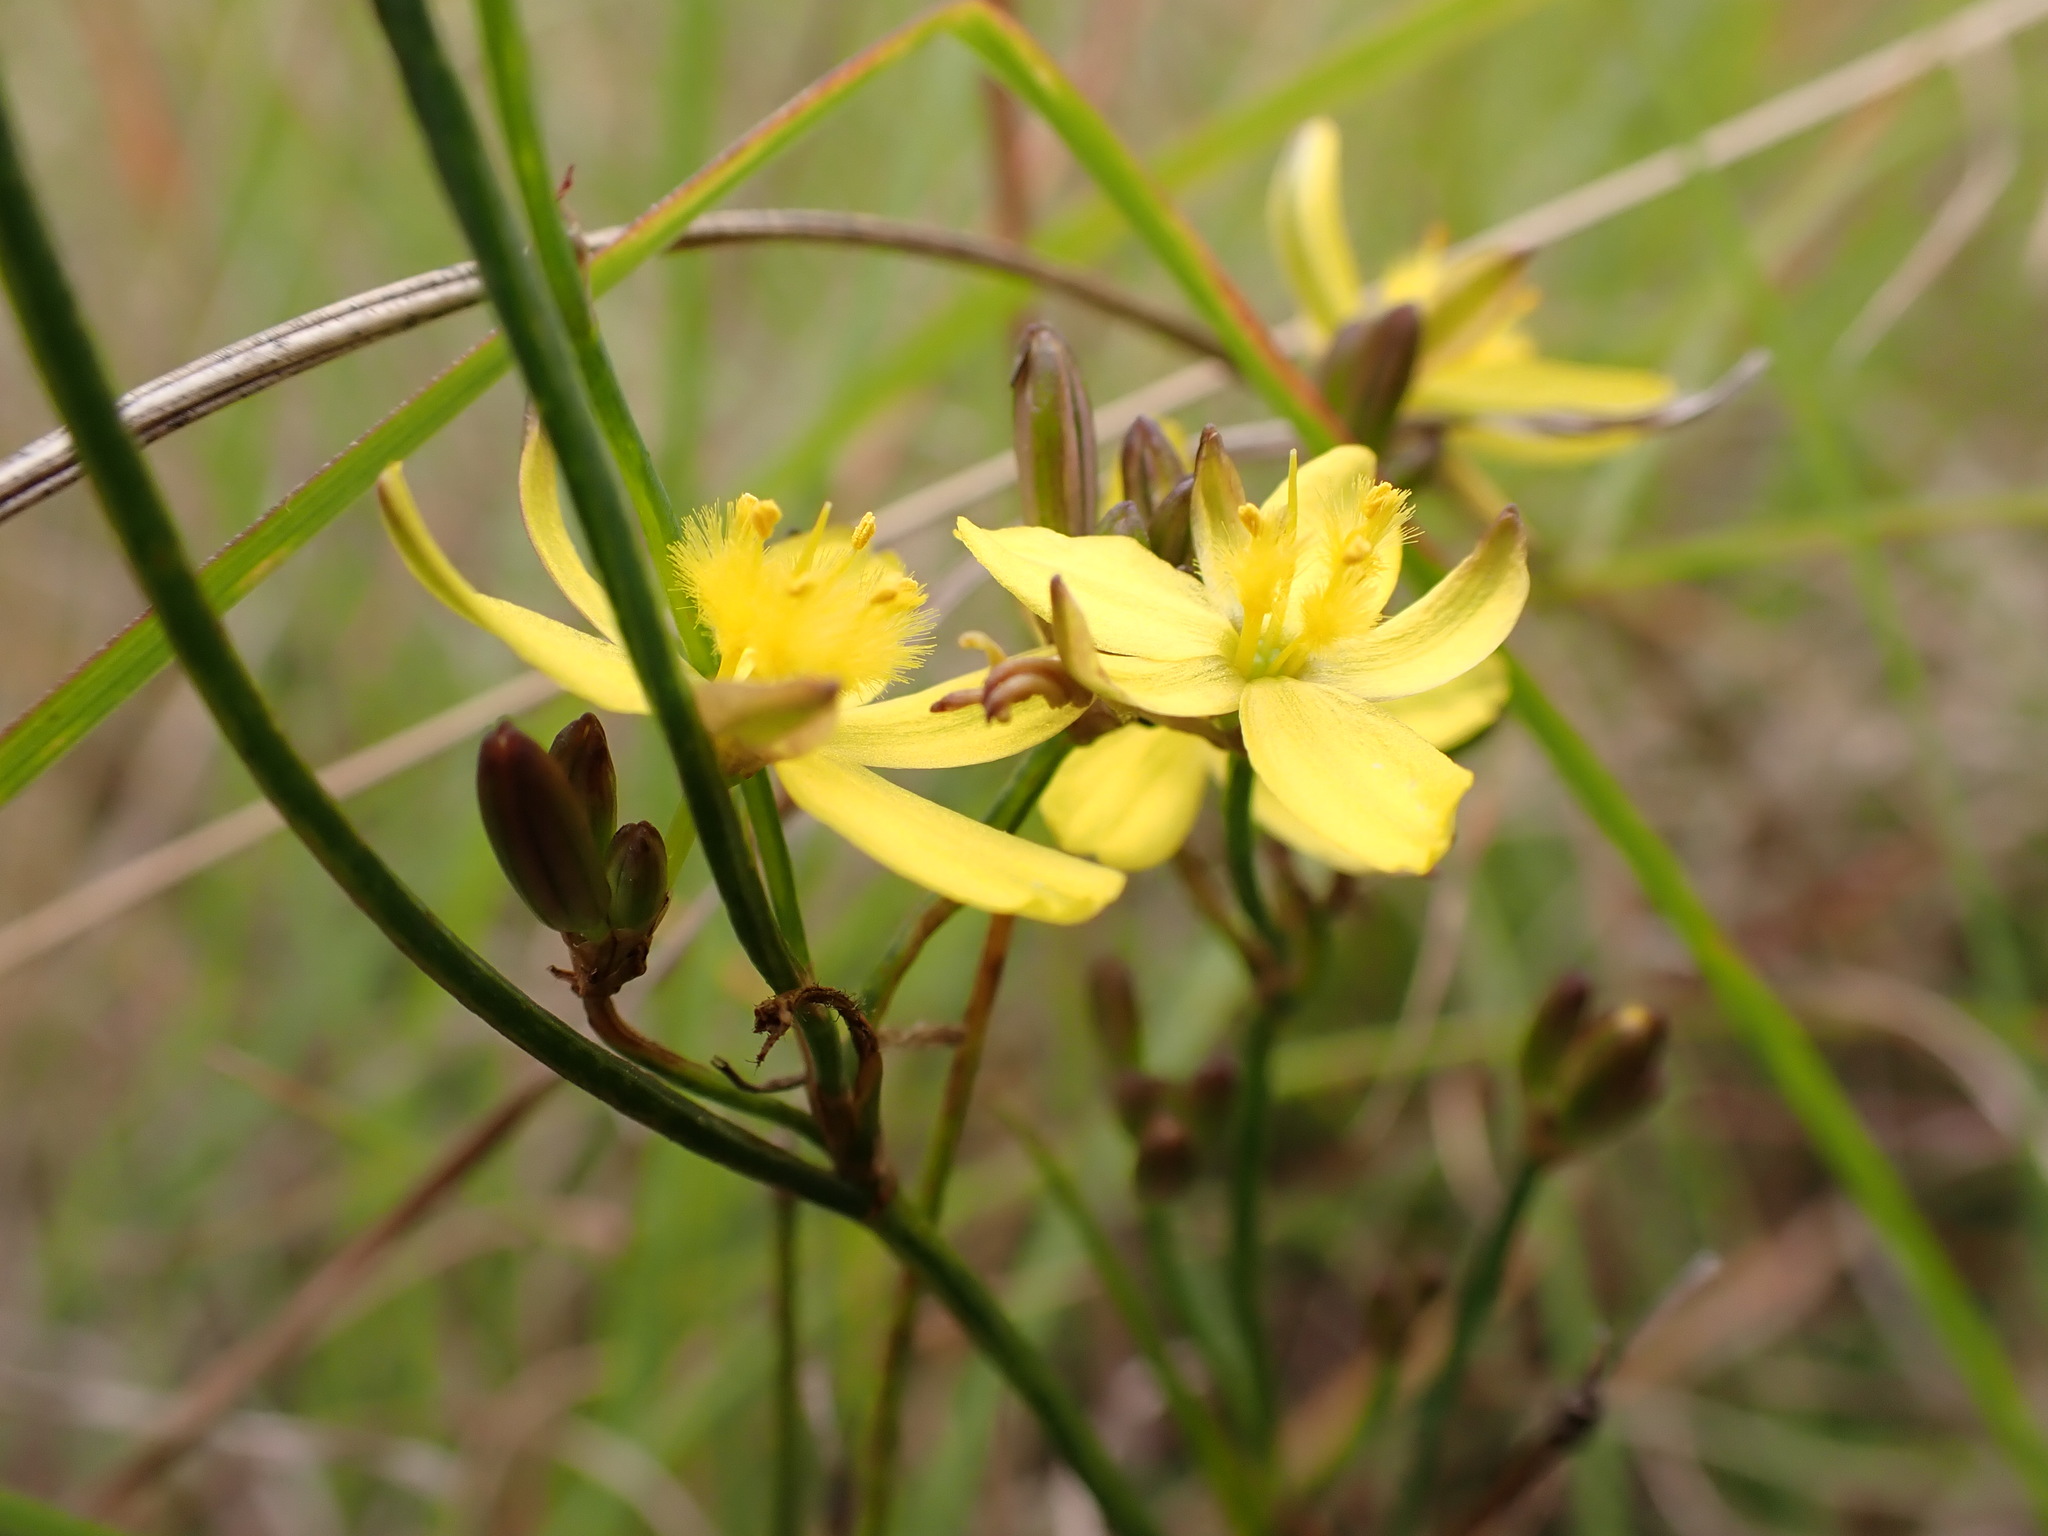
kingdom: Plantae
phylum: Tracheophyta
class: Liliopsida
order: Asparagales
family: Asphodelaceae
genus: Tricoryne
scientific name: Tricoryne elatior
